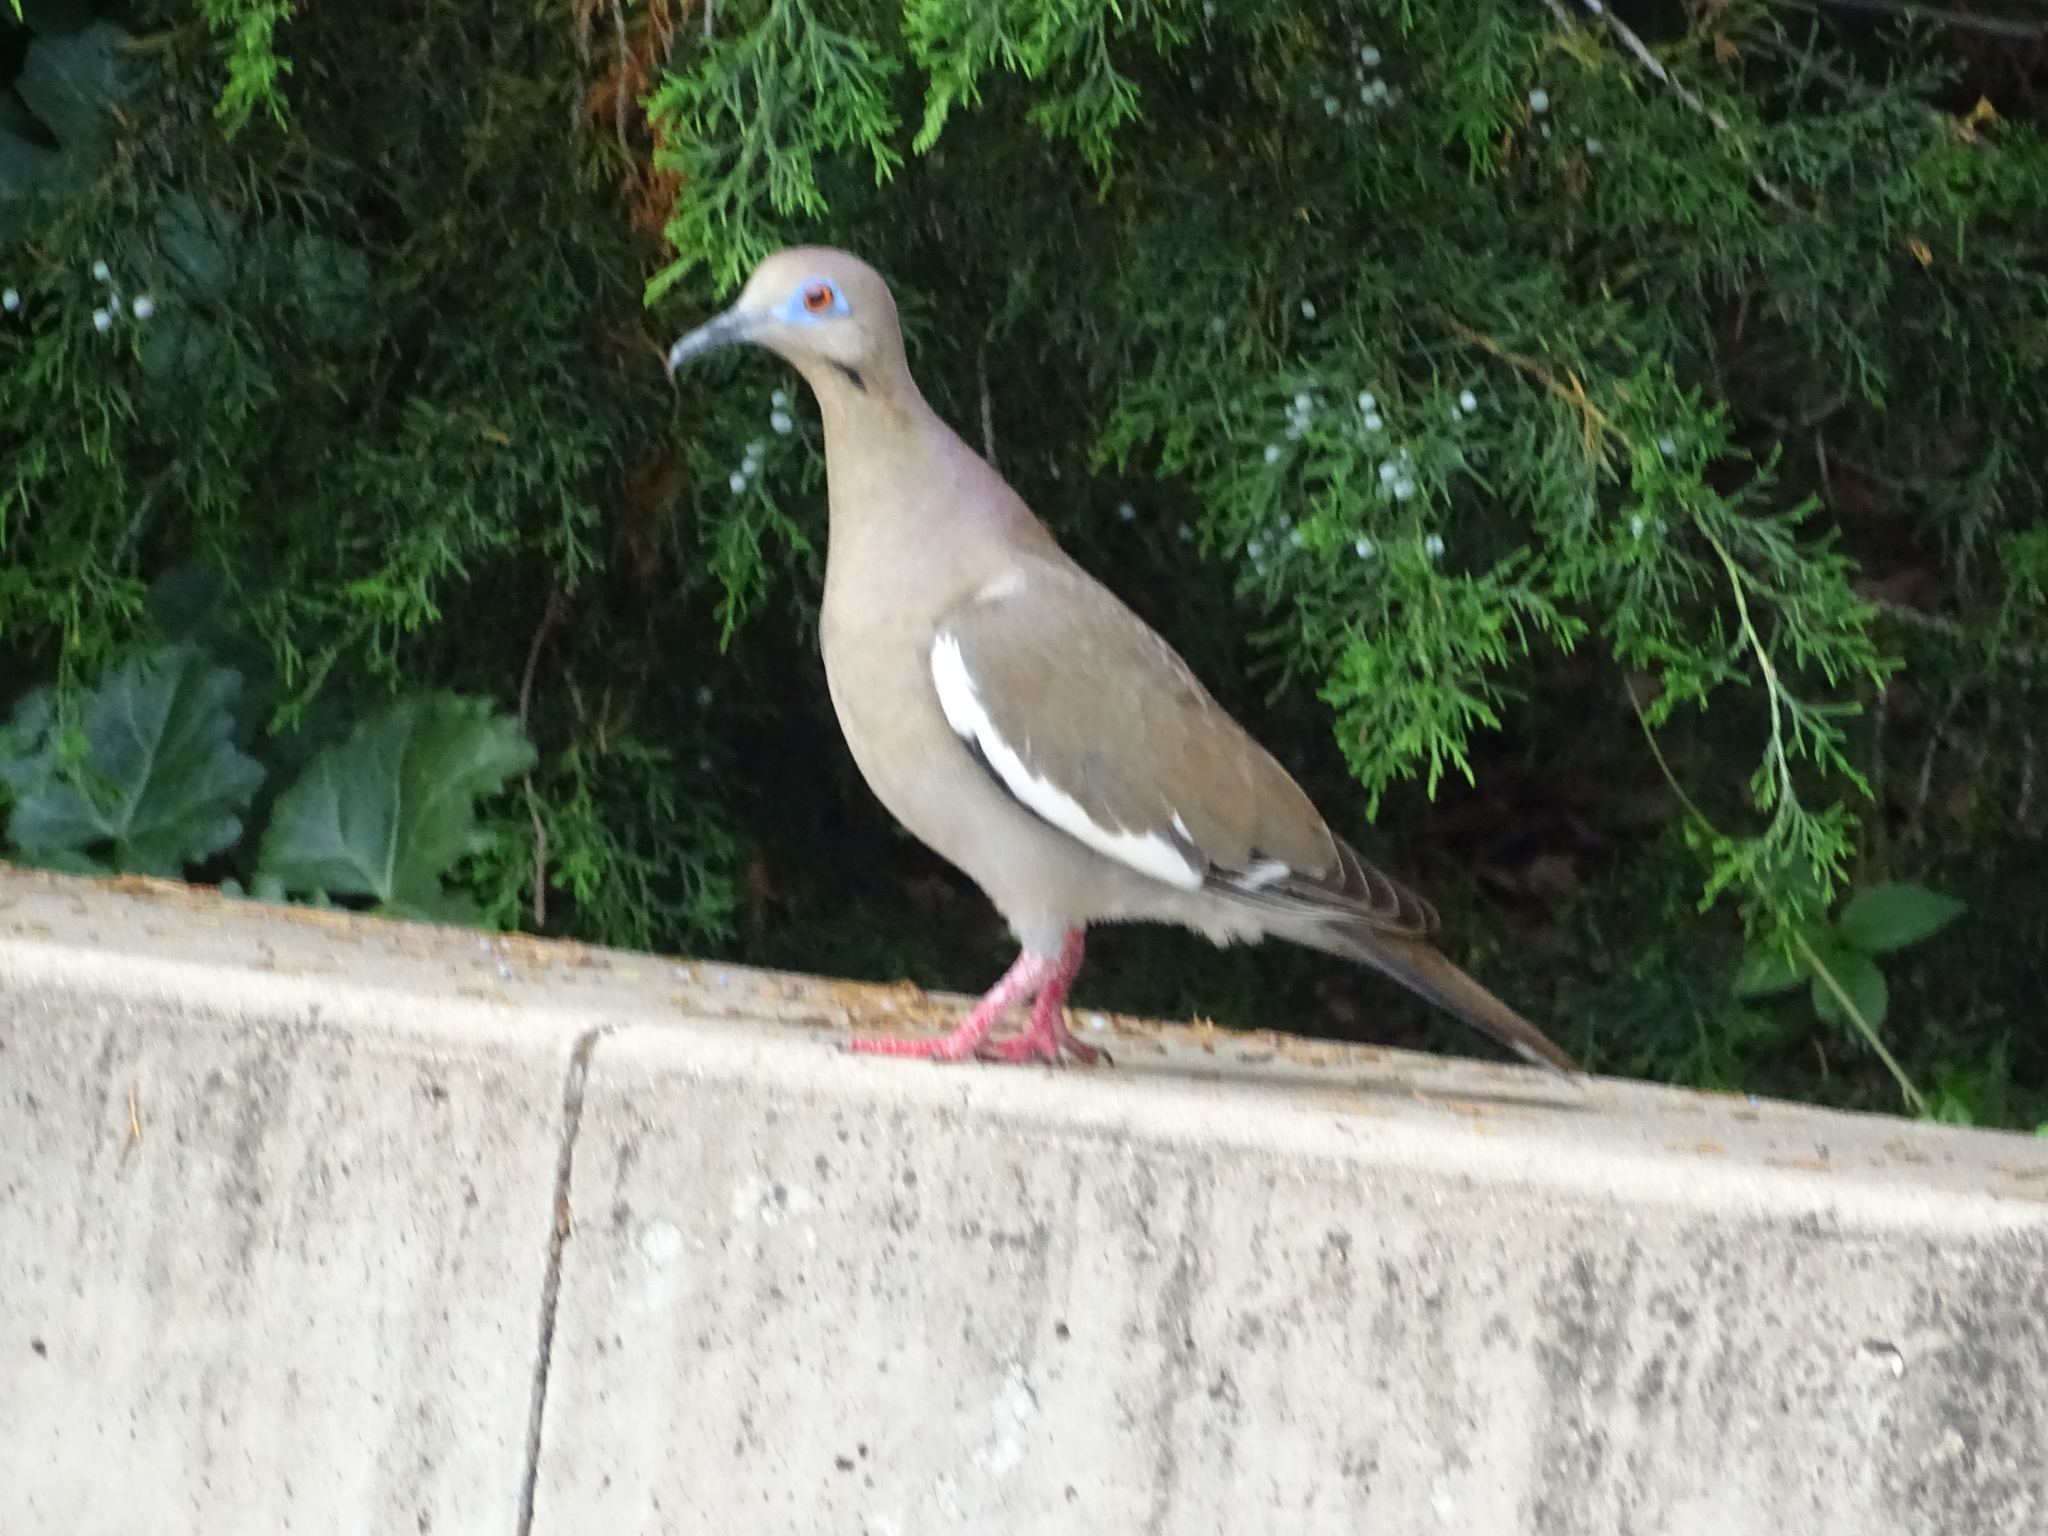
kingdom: Animalia
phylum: Chordata
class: Aves
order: Columbiformes
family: Columbidae
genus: Zenaida
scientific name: Zenaida asiatica
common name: White-winged dove
